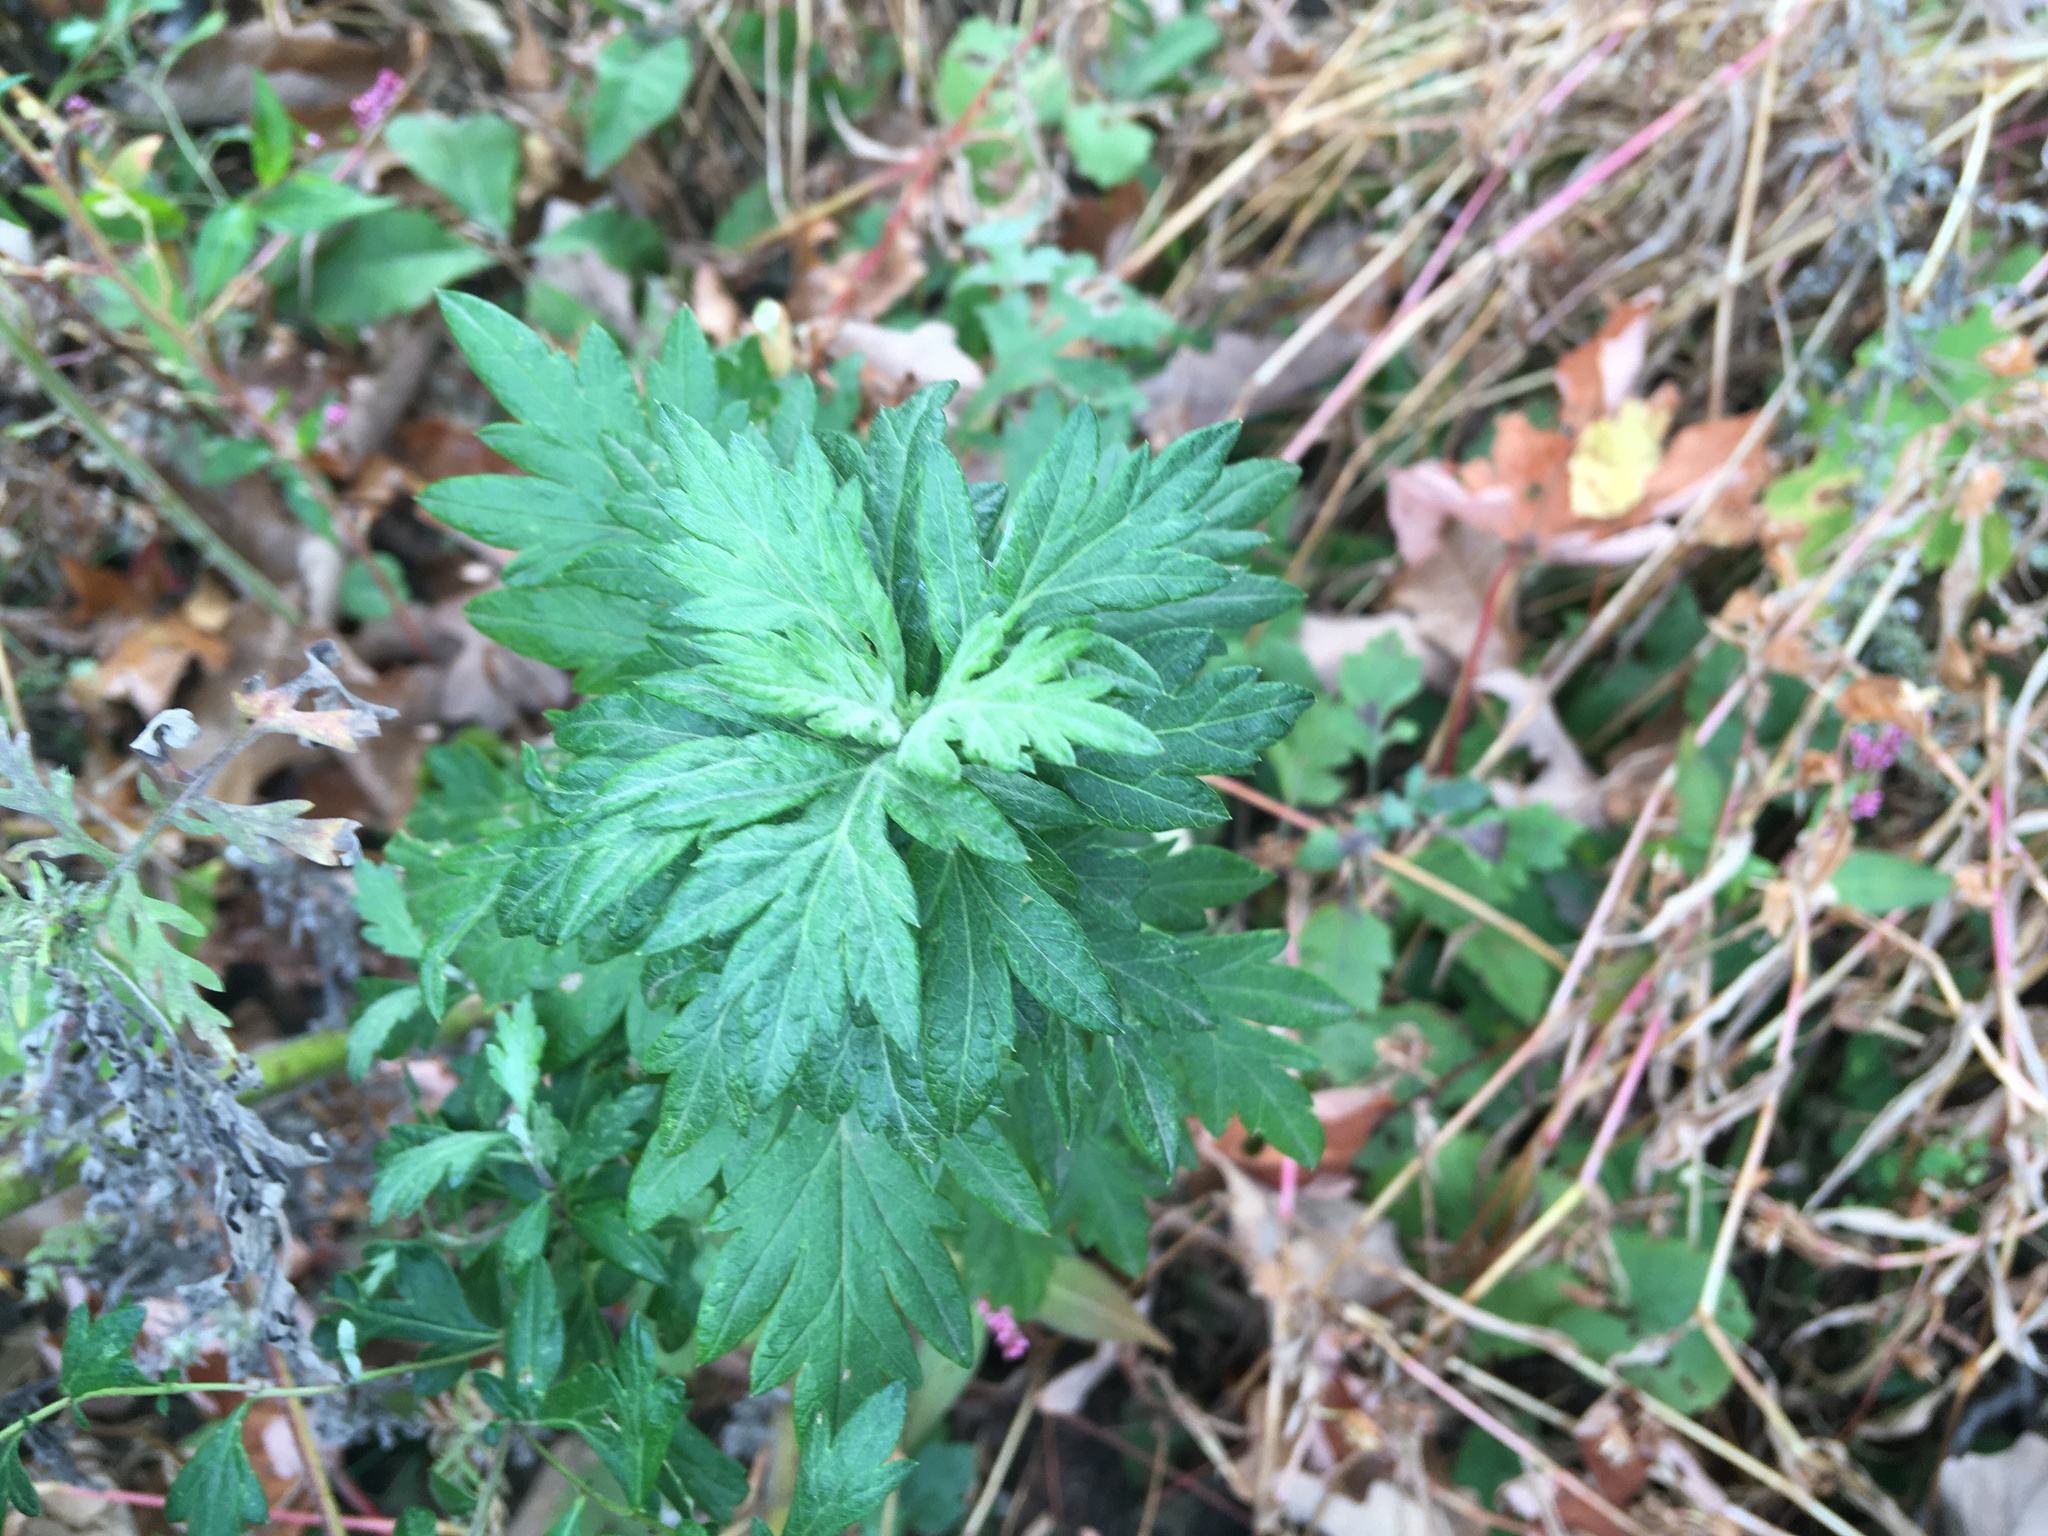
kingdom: Plantae
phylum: Tracheophyta
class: Magnoliopsida
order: Asterales
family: Asteraceae
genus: Artemisia
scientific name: Artemisia vulgaris
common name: Mugwort
